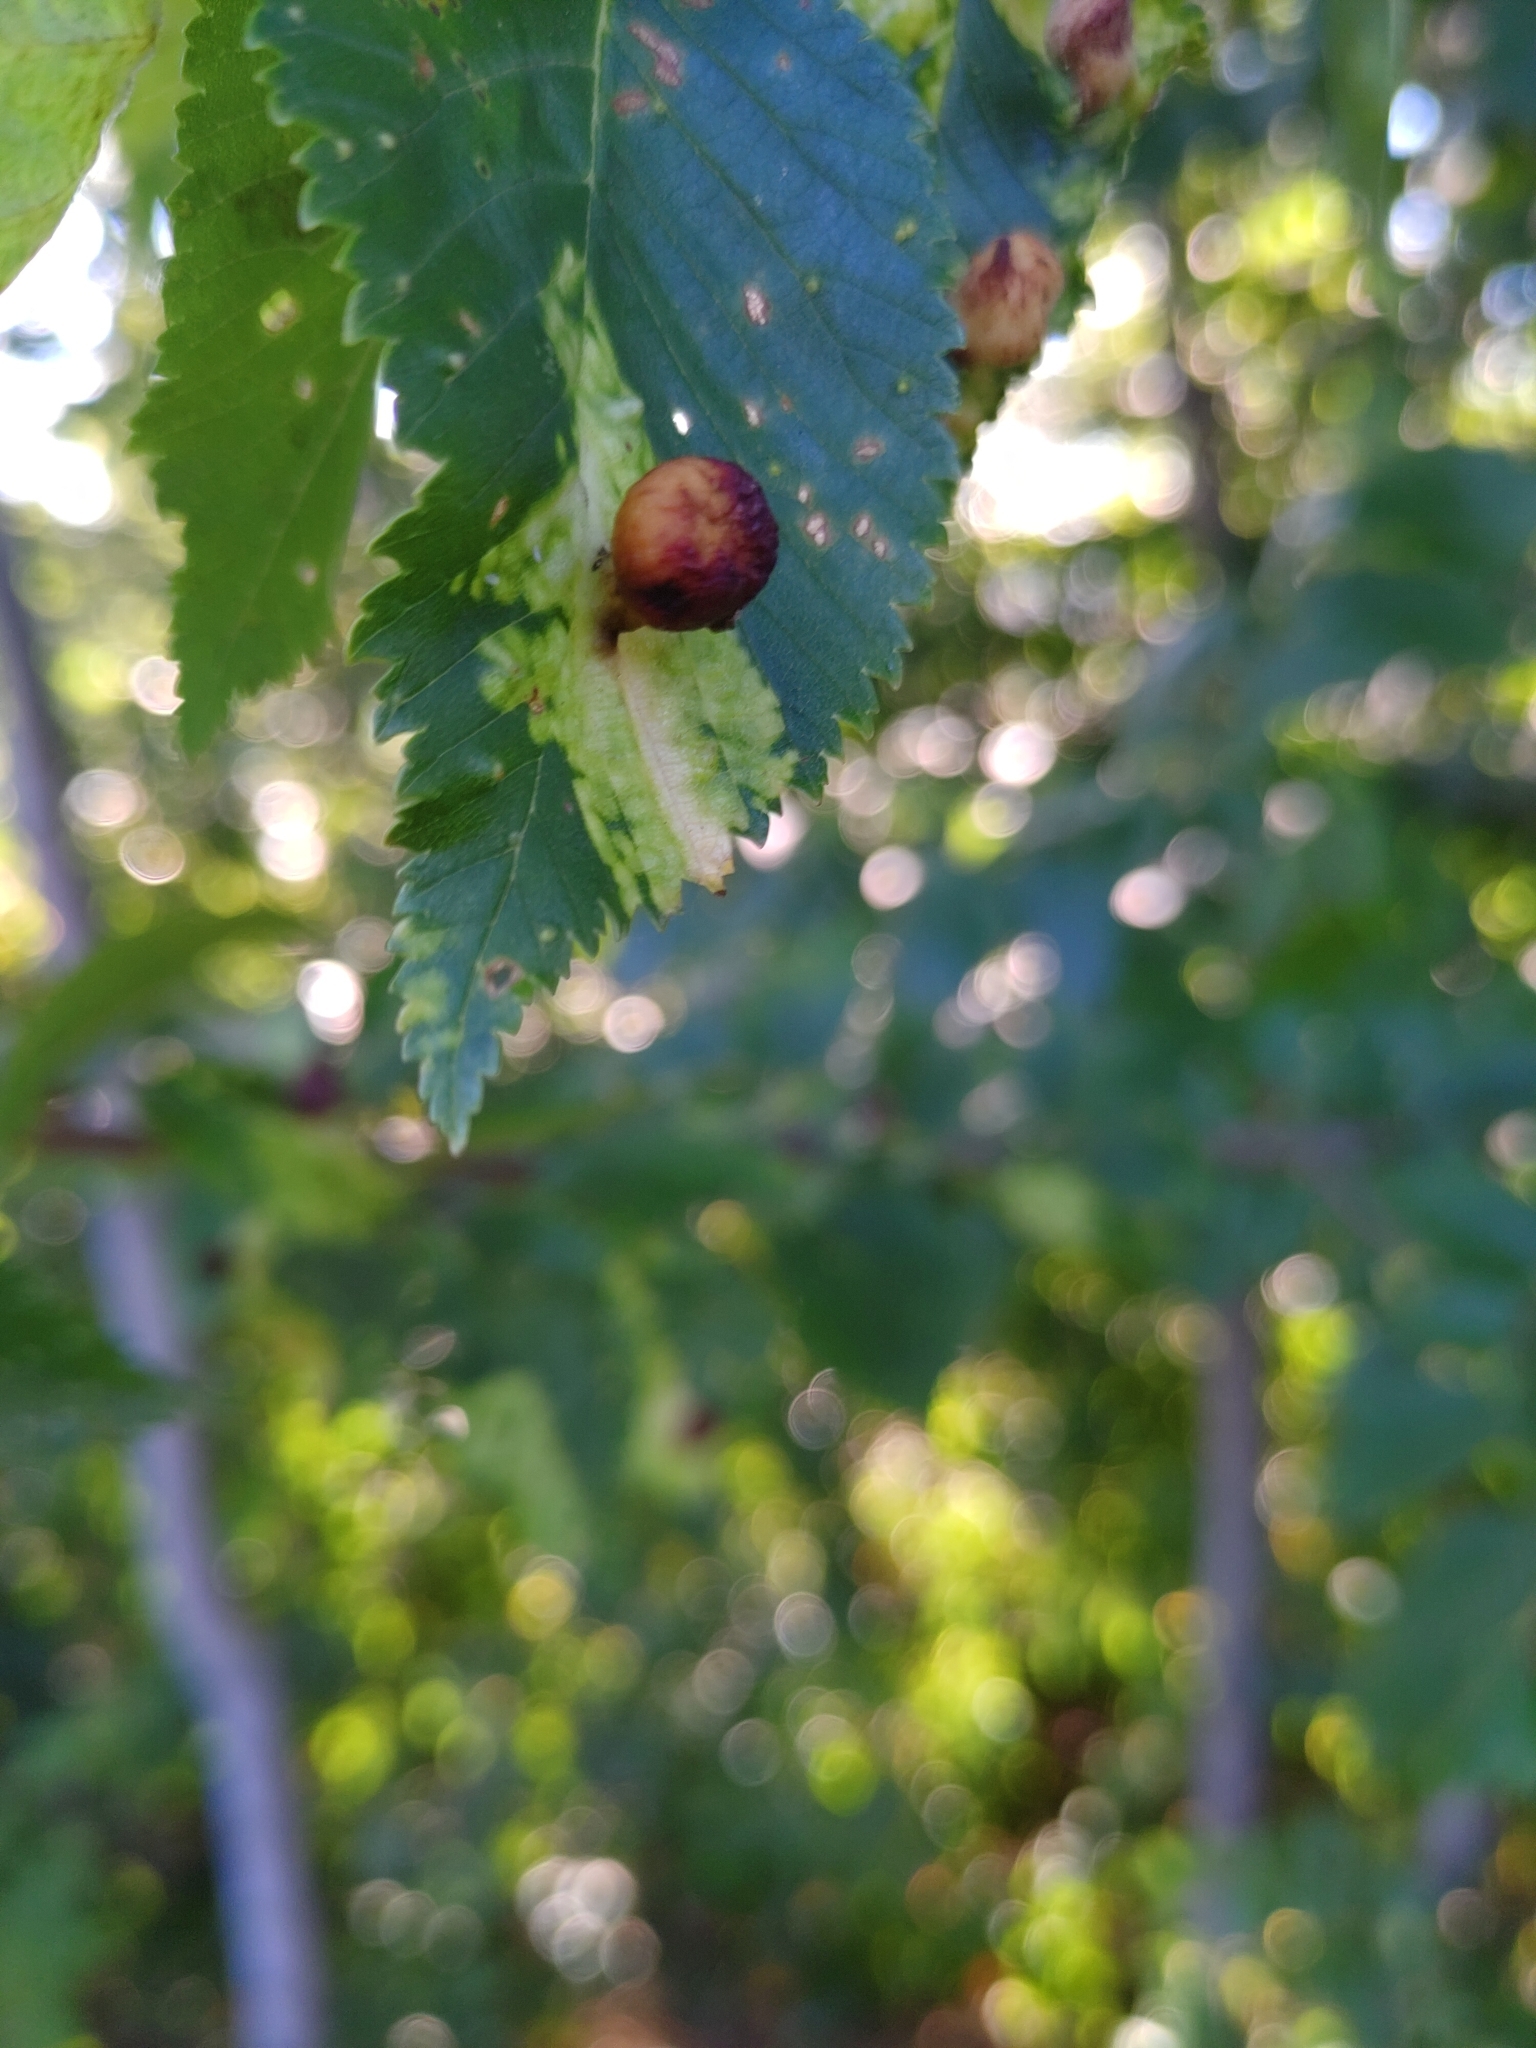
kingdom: Animalia
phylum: Arthropoda
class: Insecta
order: Hemiptera
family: Aphididae
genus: Tetraneura
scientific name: Tetraneura ulmi
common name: Aphid
